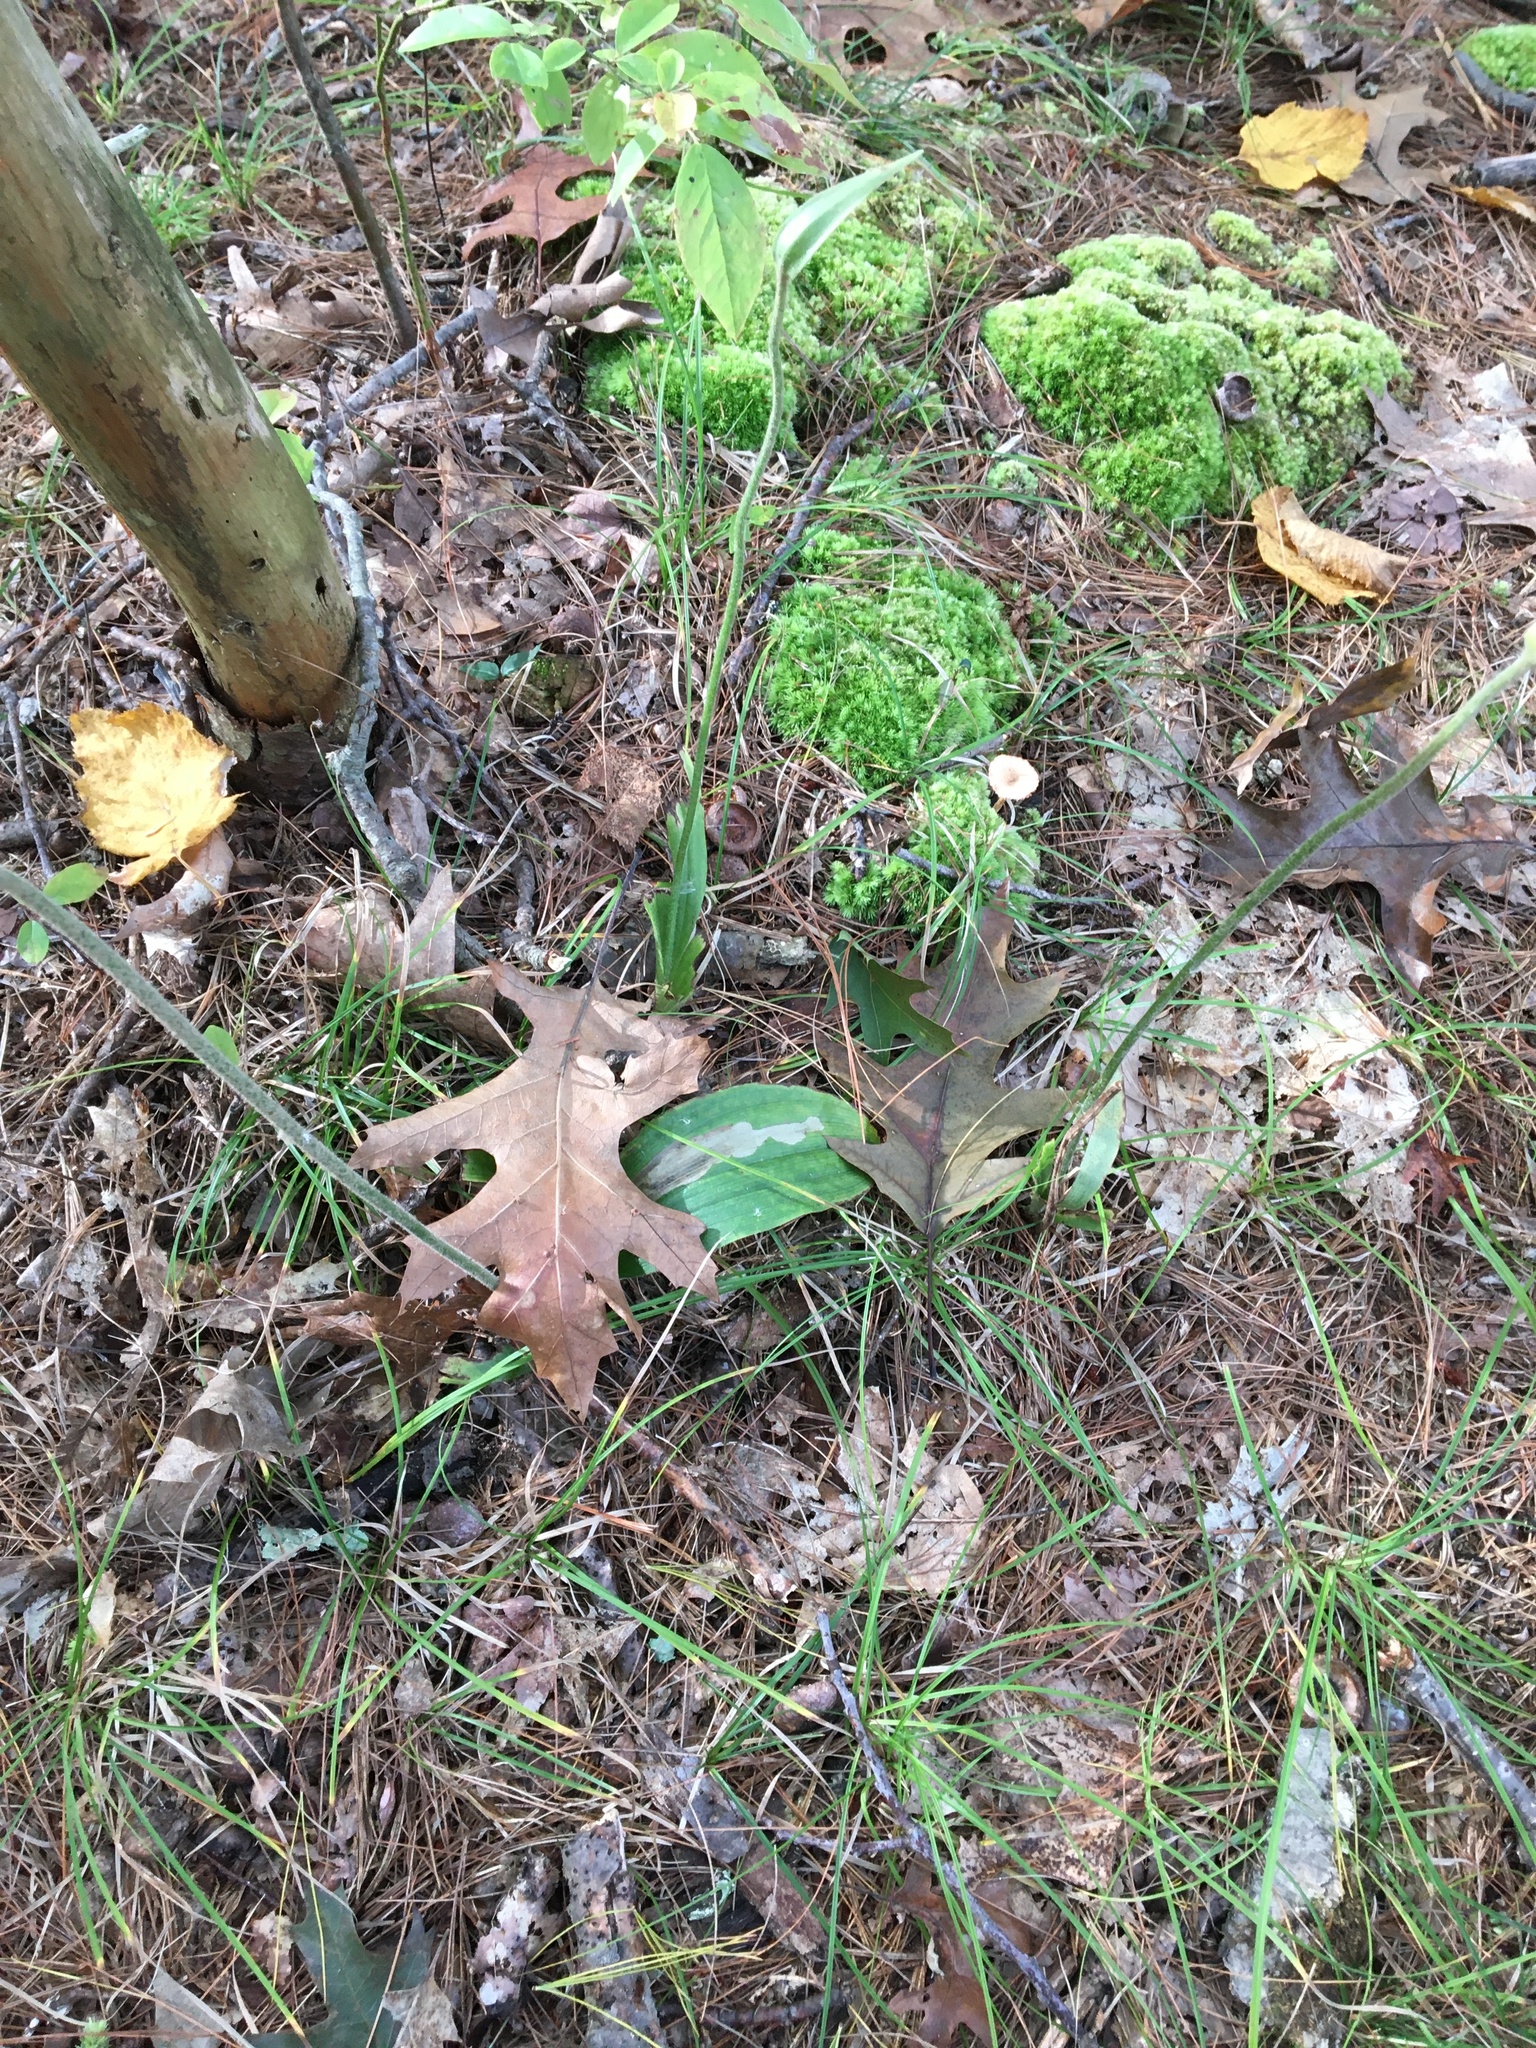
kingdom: Plantae
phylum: Tracheophyta
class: Liliopsida
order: Asparagales
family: Orchidaceae
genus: Cypripedium
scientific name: Cypripedium acaule
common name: Pink lady's-slipper
